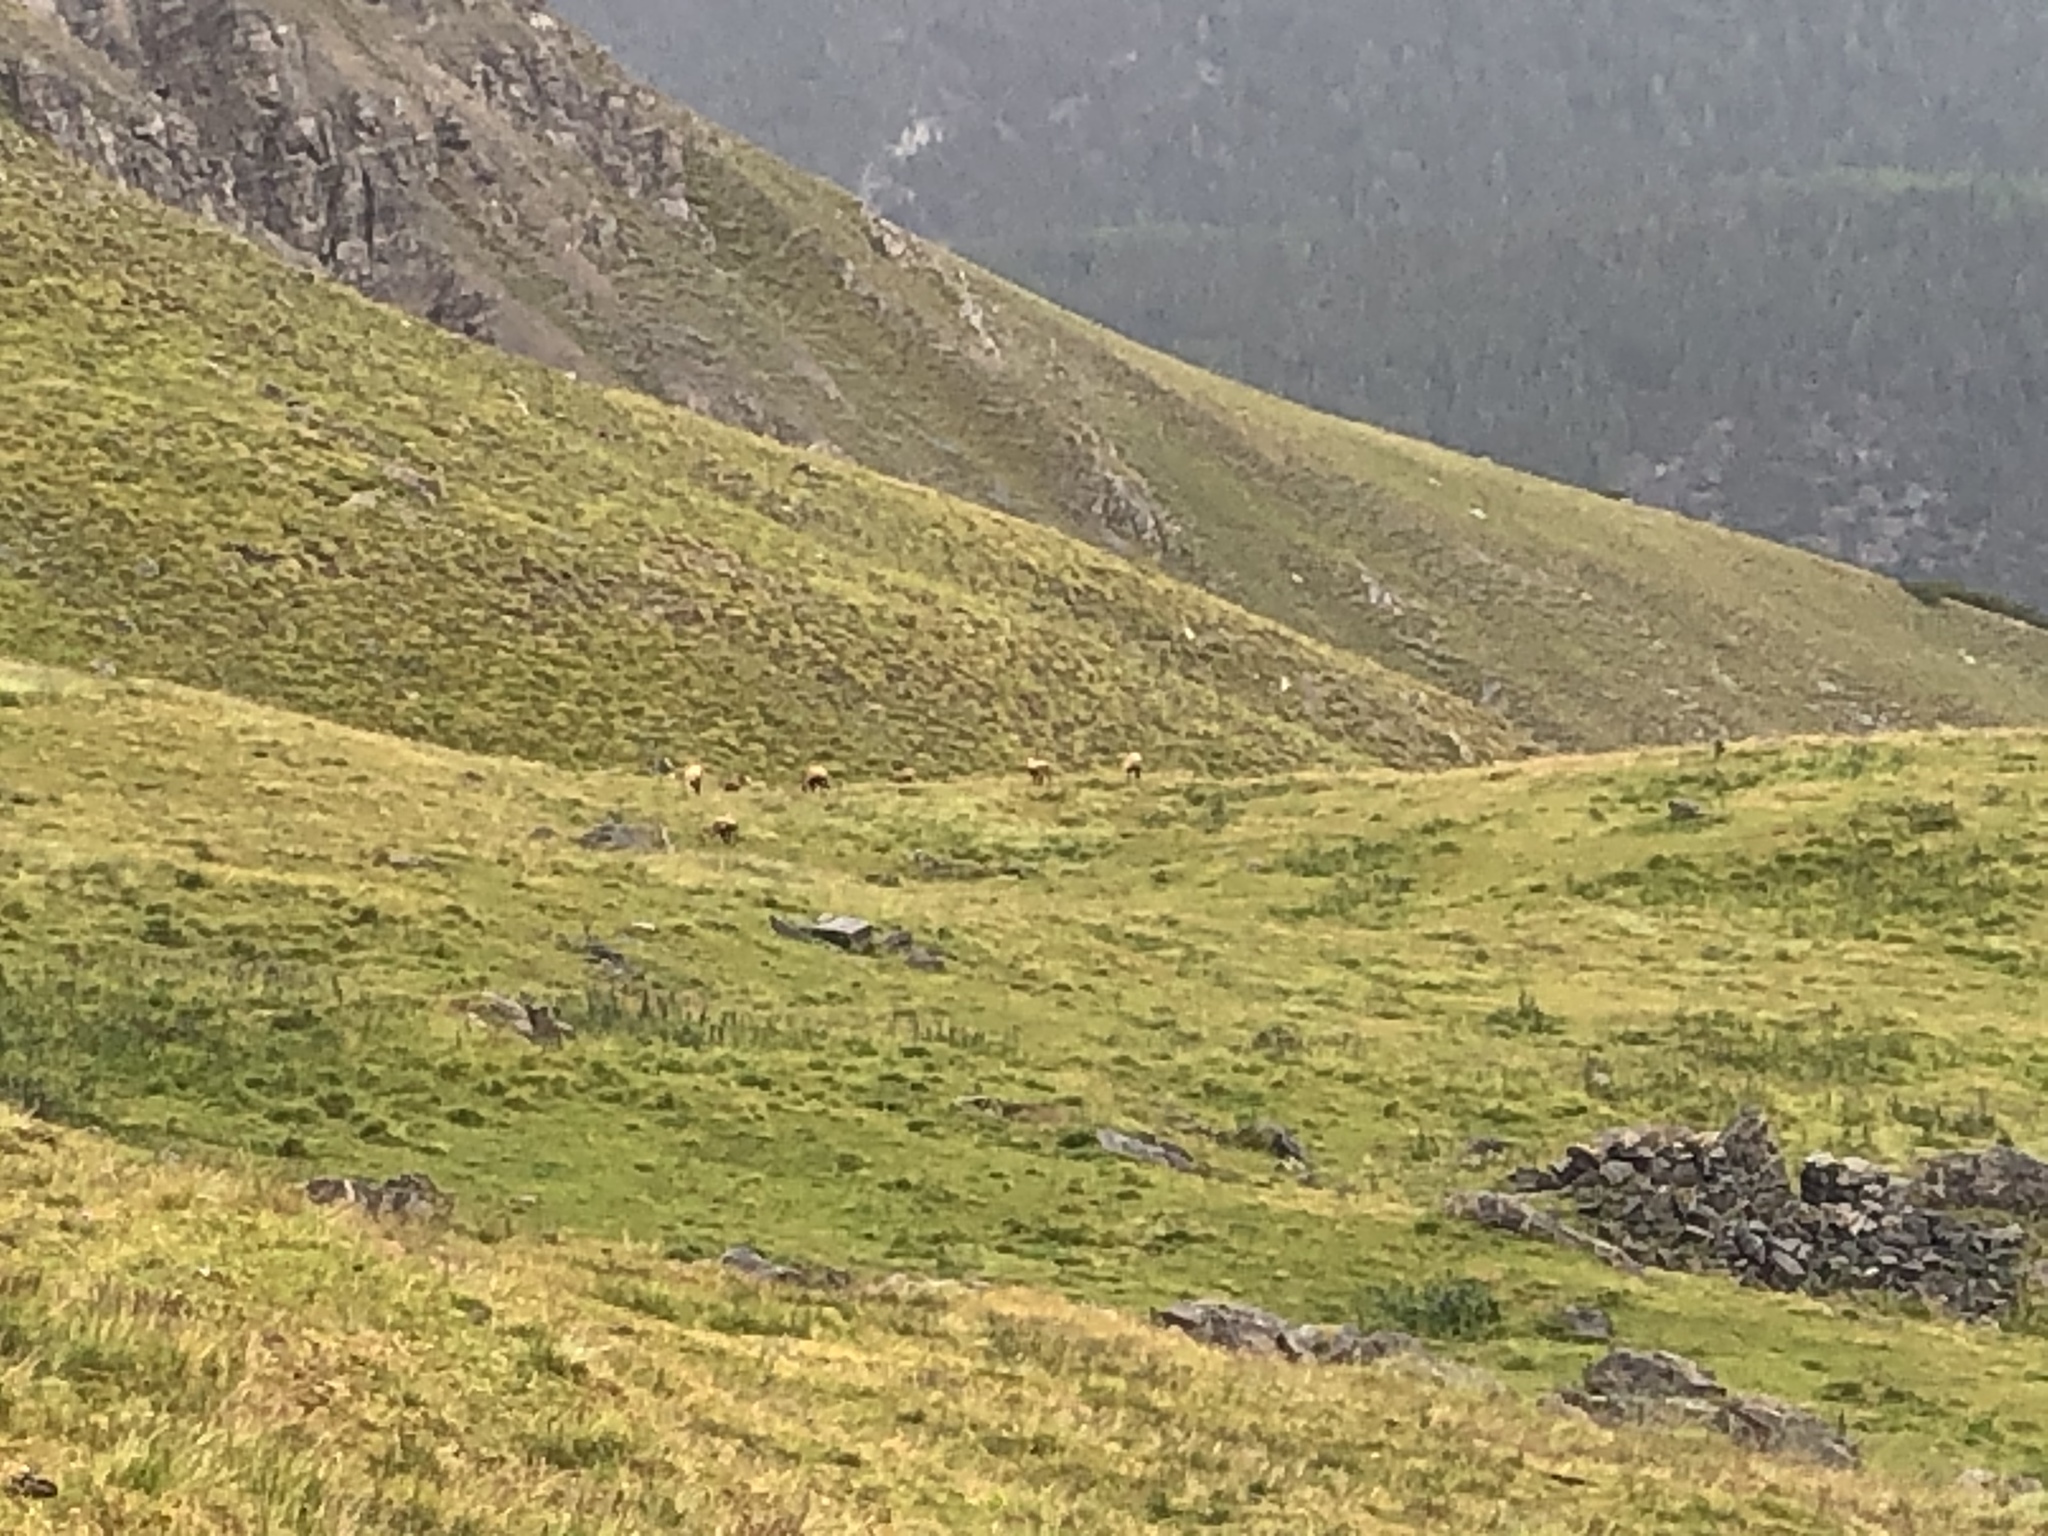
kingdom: Animalia
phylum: Chordata
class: Mammalia
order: Artiodactyla
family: Bovidae
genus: Rupicapra
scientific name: Rupicapra rupicapra
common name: Chamois
